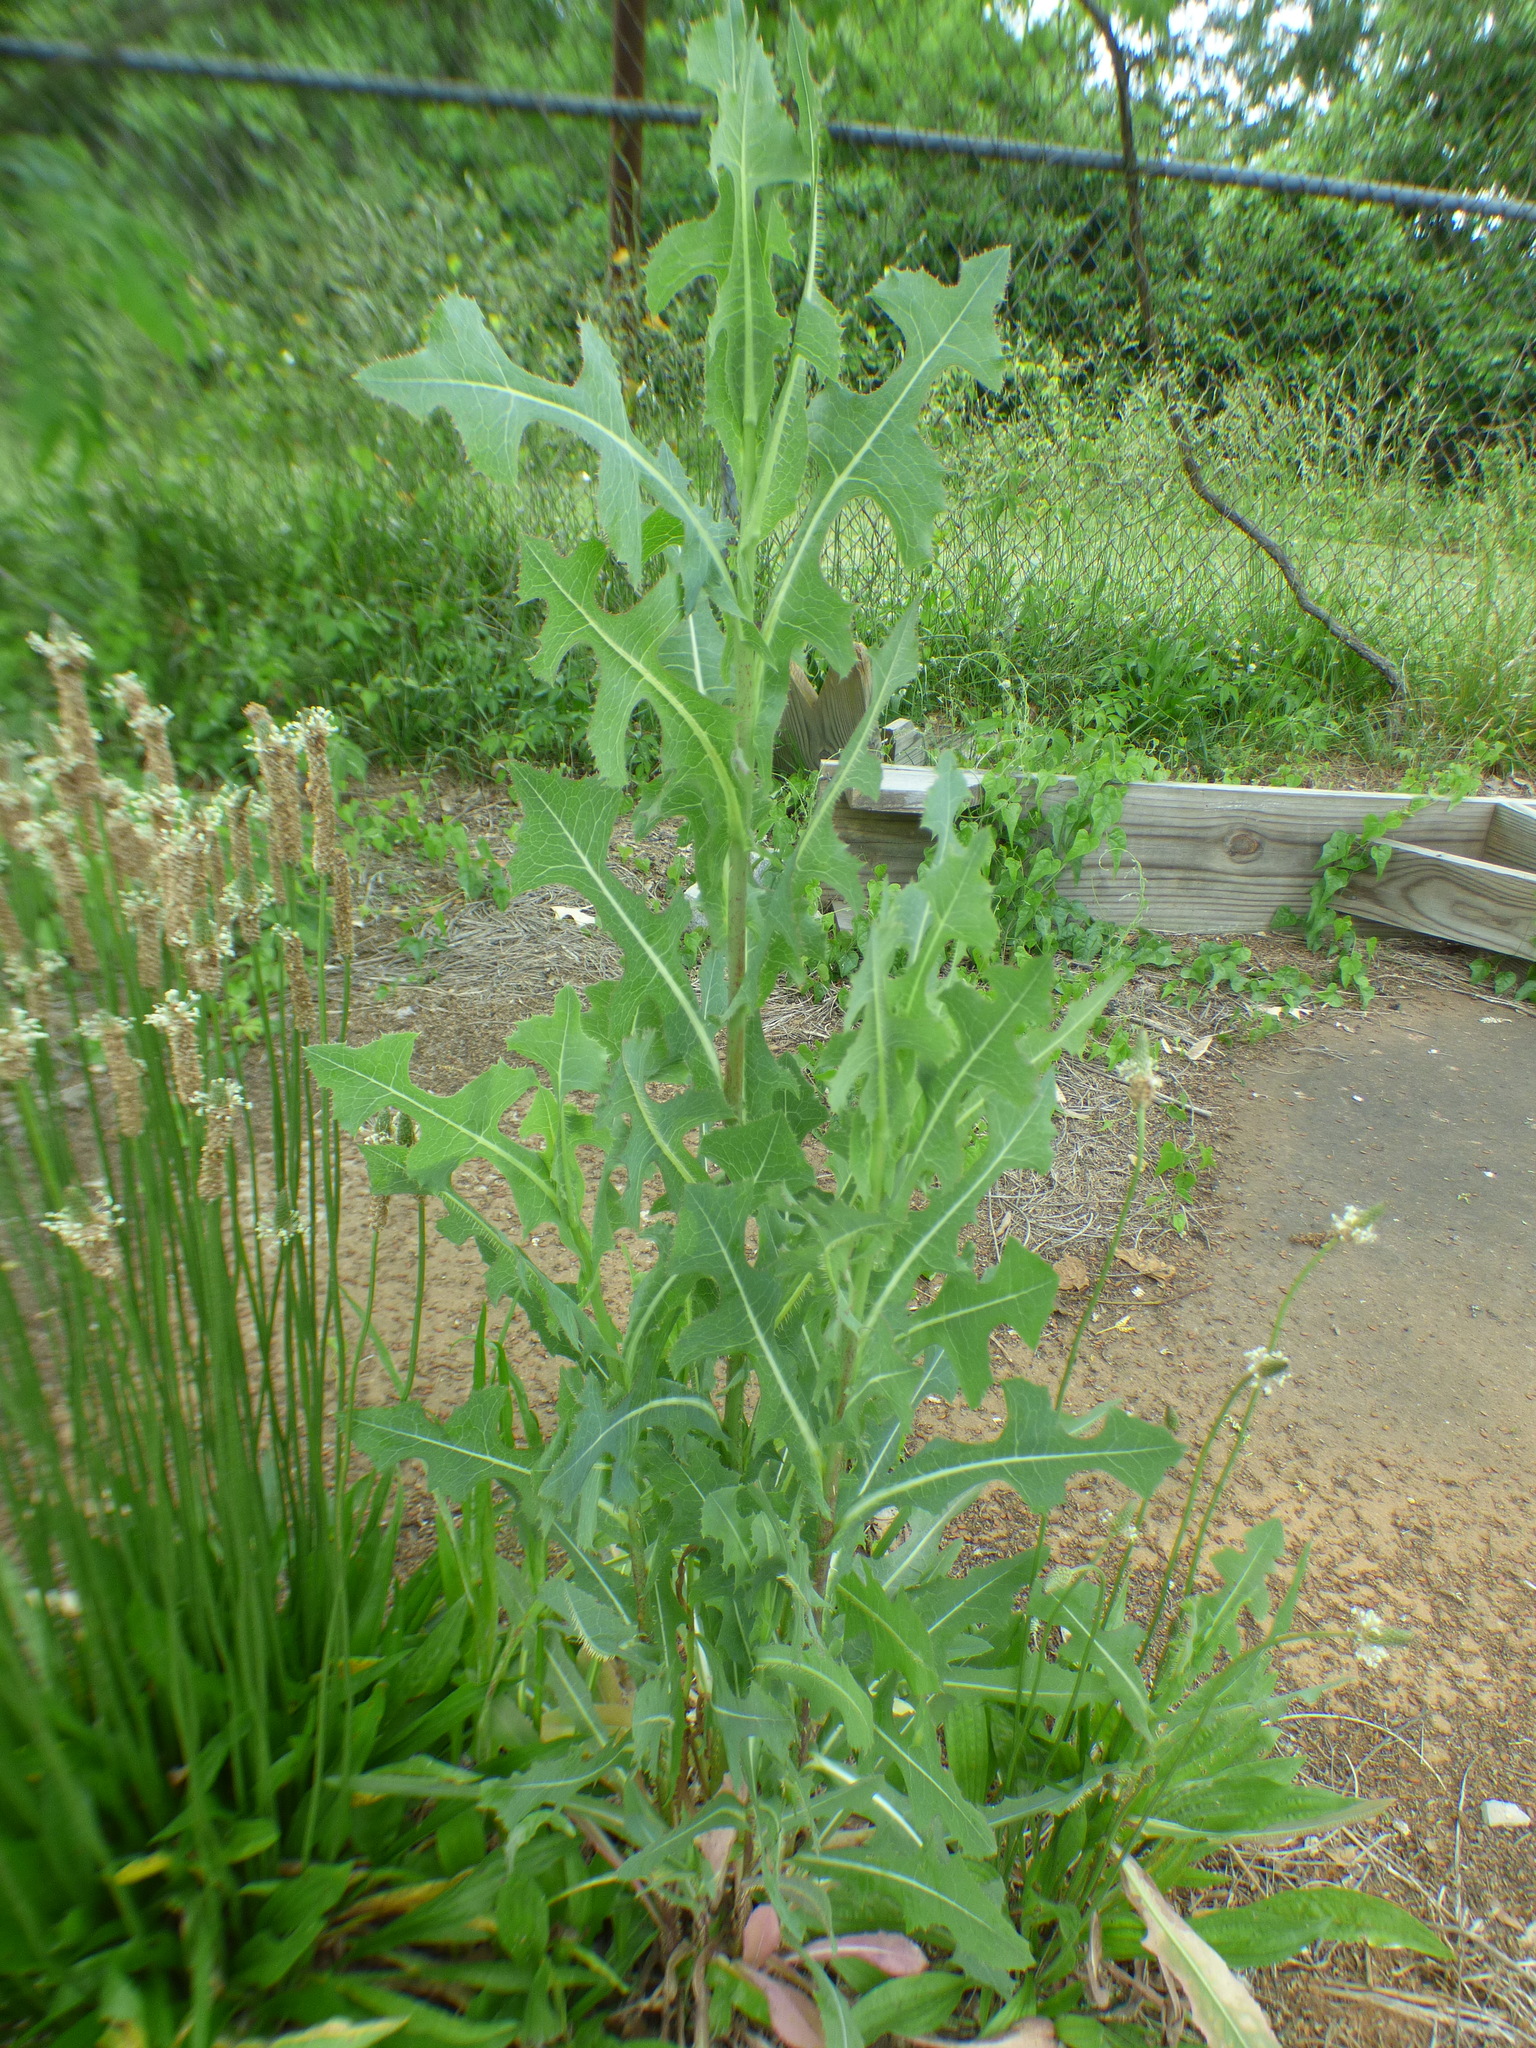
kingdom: Plantae
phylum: Tracheophyta
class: Magnoliopsida
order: Asterales
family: Asteraceae
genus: Lactuca
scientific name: Lactuca serriola
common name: Prickly lettuce
